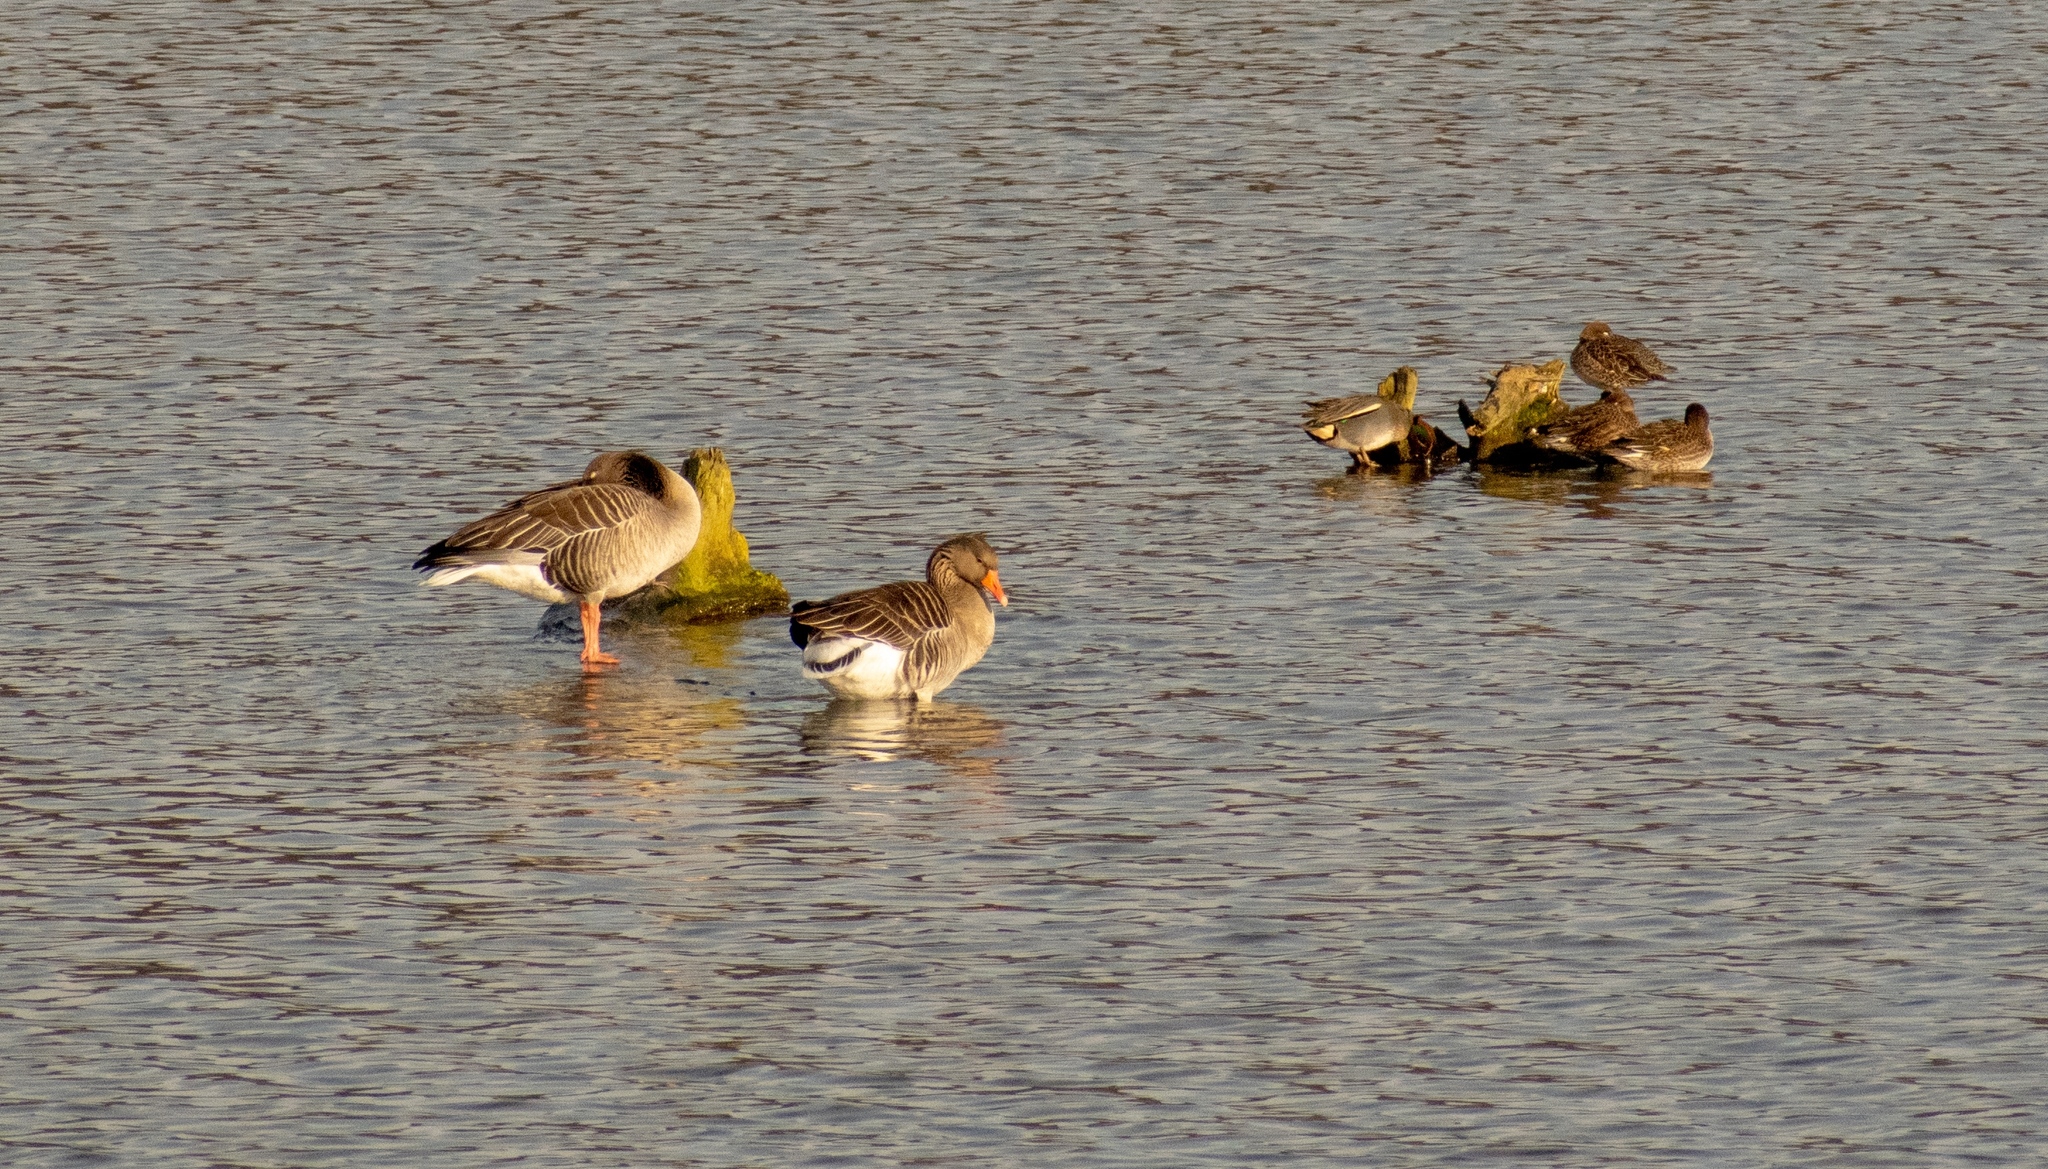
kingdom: Animalia
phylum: Chordata
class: Aves
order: Anseriformes
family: Anatidae
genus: Anas
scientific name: Anas crecca
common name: Eurasian teal
